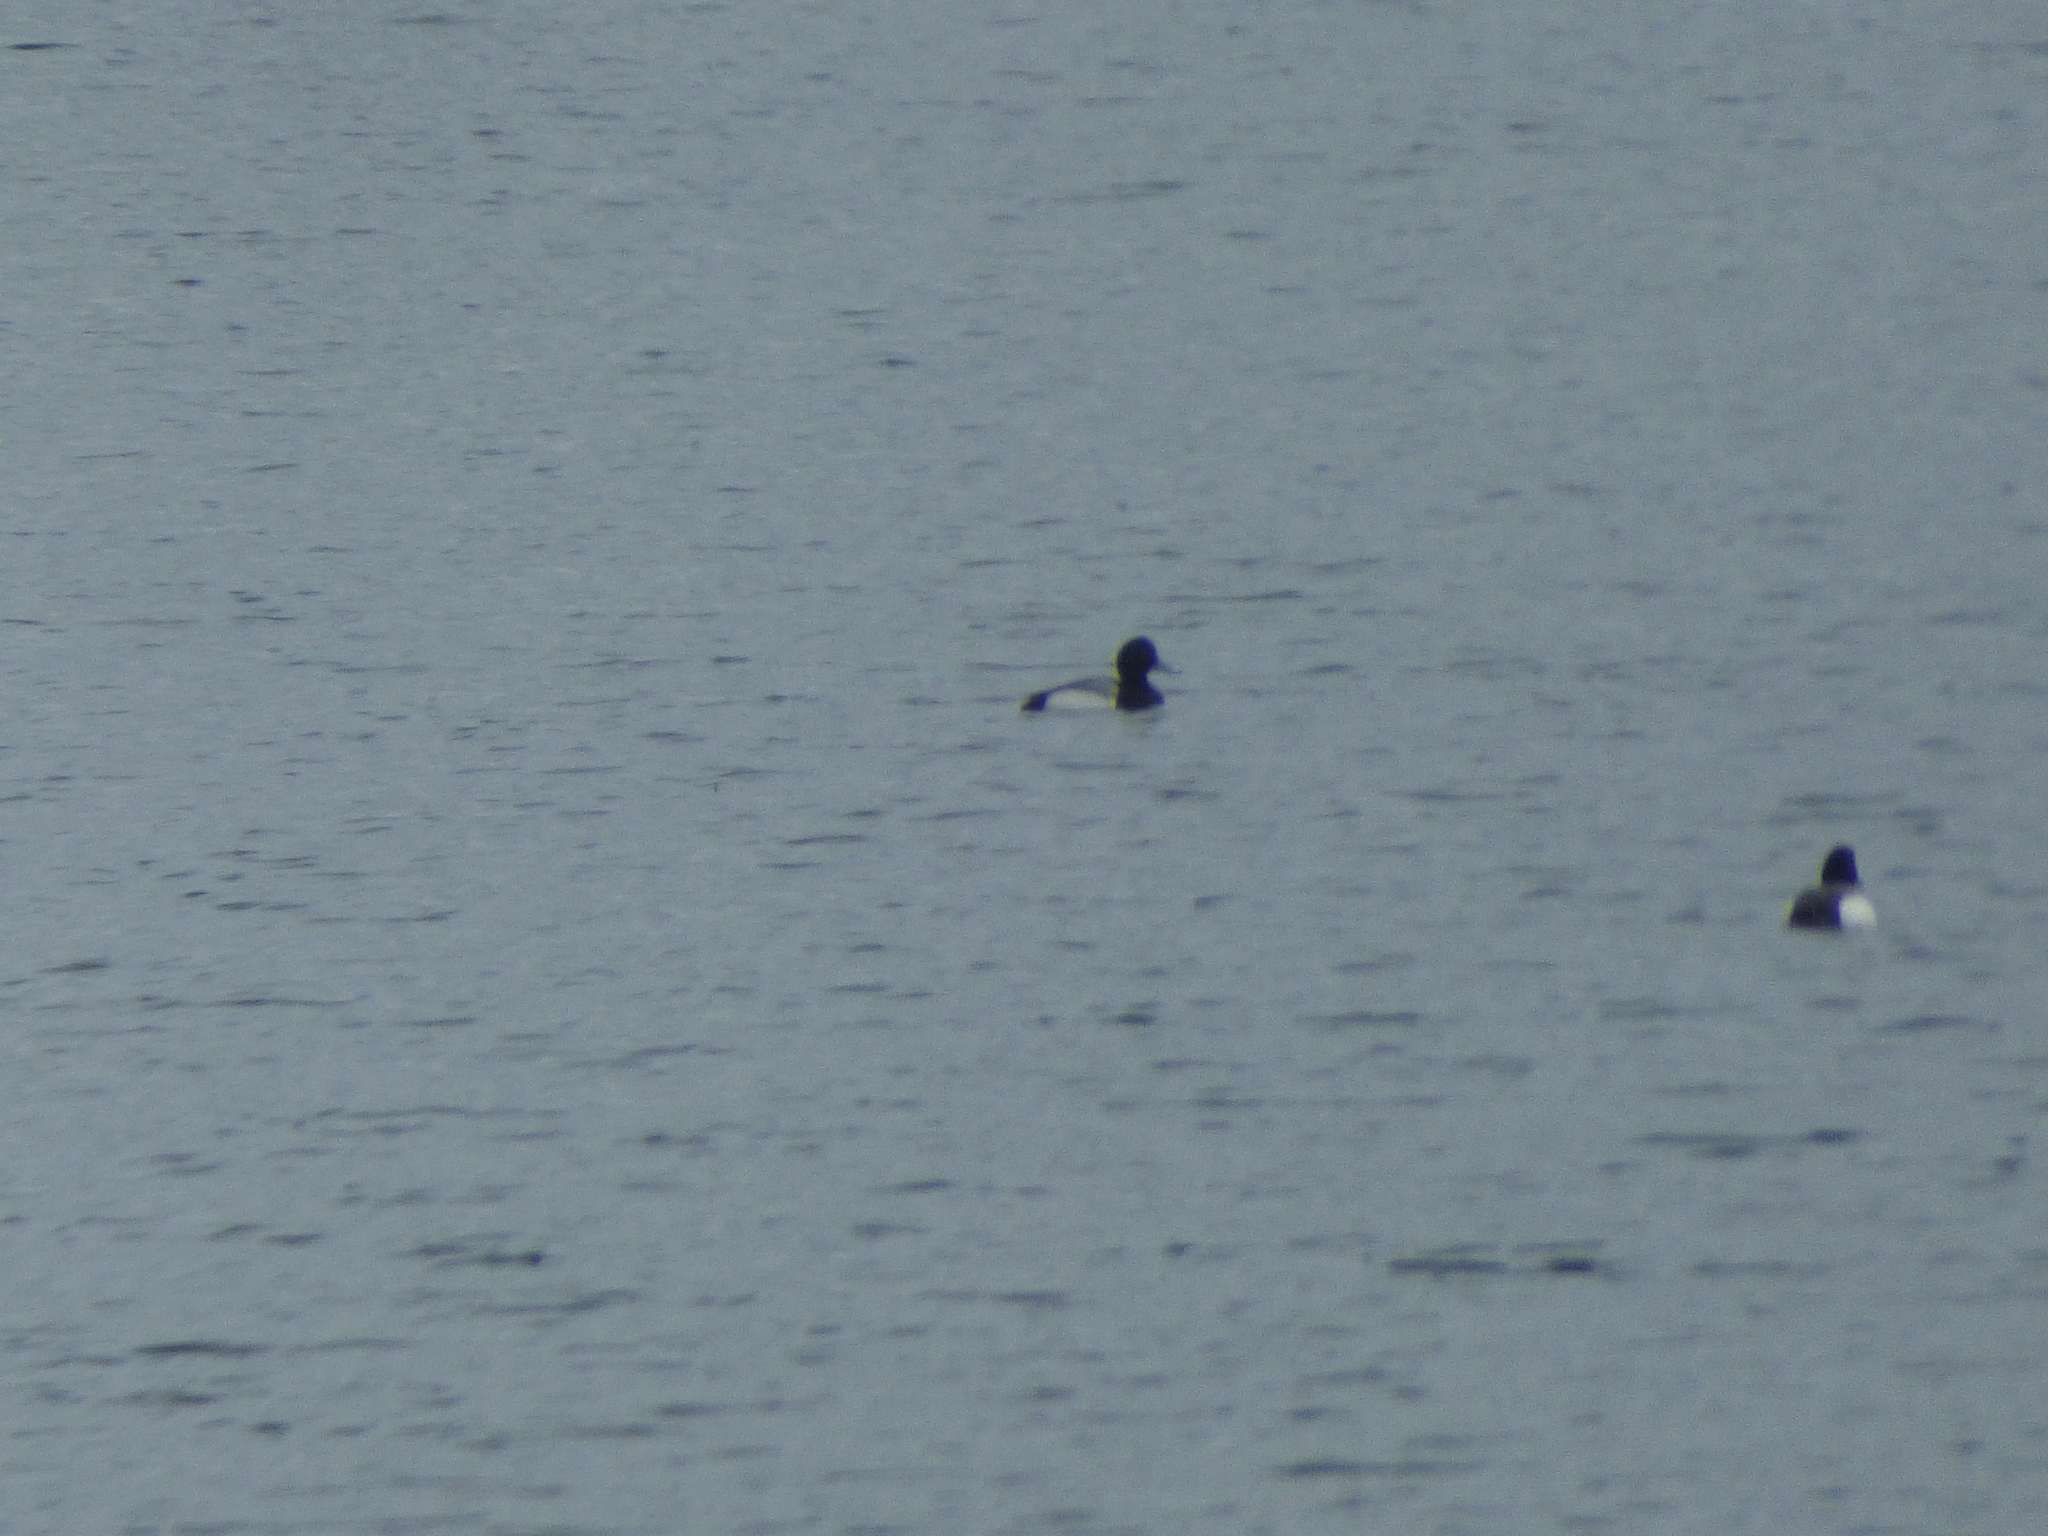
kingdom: Animalia
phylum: Chordata
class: Aves
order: Anseriformes
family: Anatidae
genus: Aythya
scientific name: Aythya marila
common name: Greater scaup
